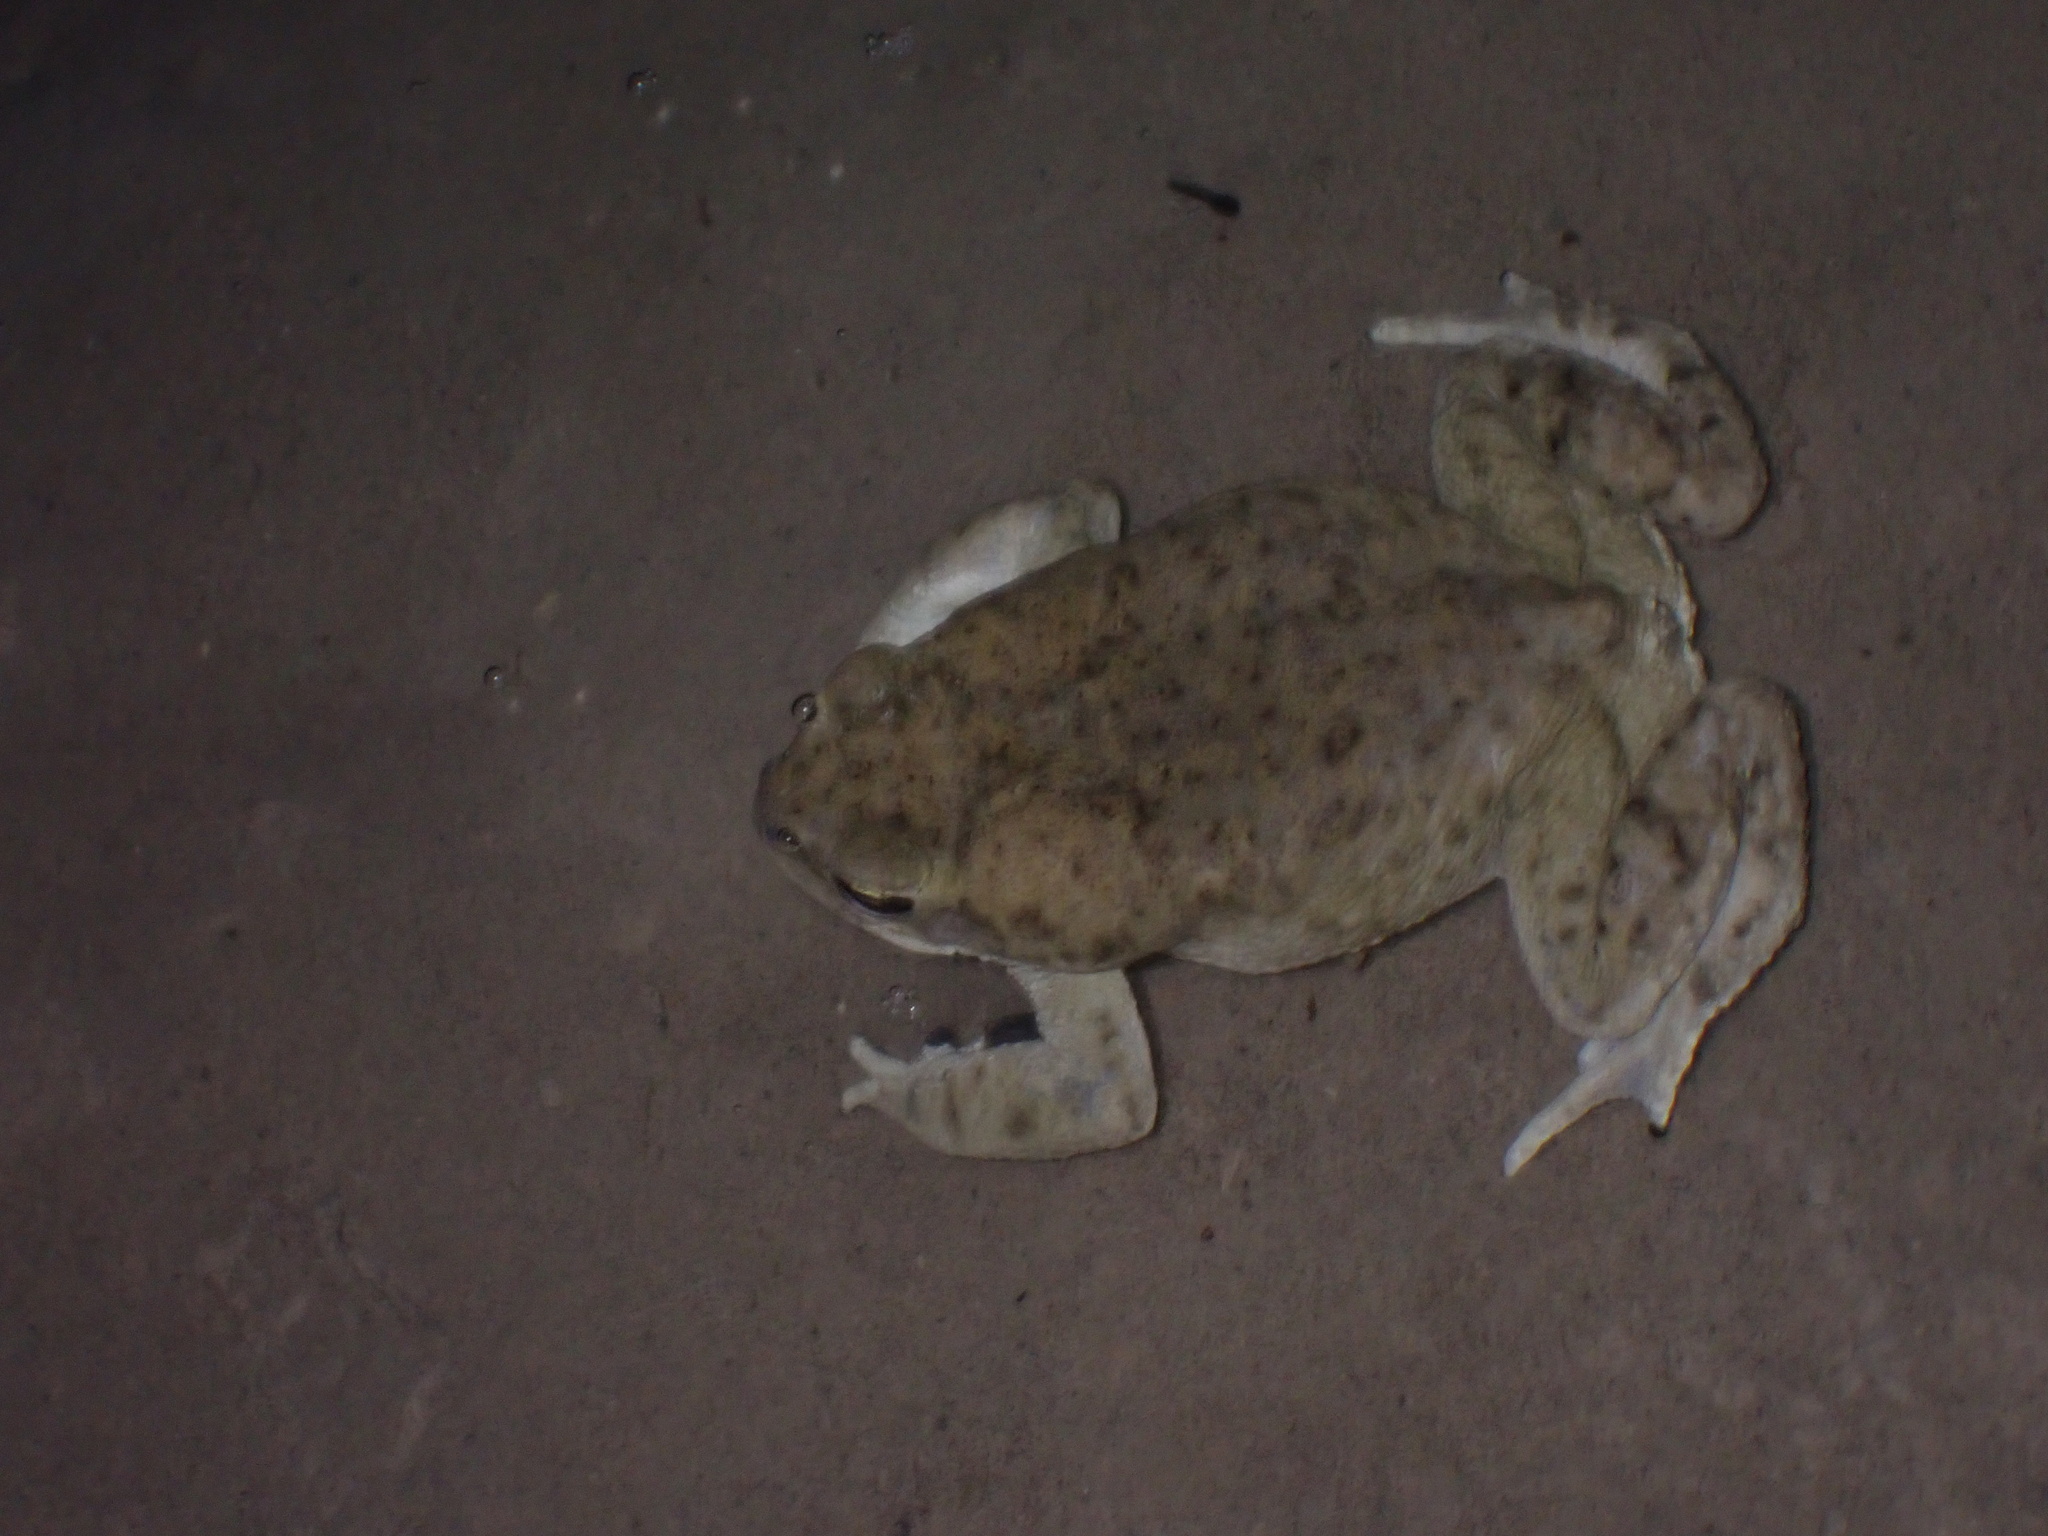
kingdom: Animalia
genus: Firouzophrynus
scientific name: Firouzophrynus
